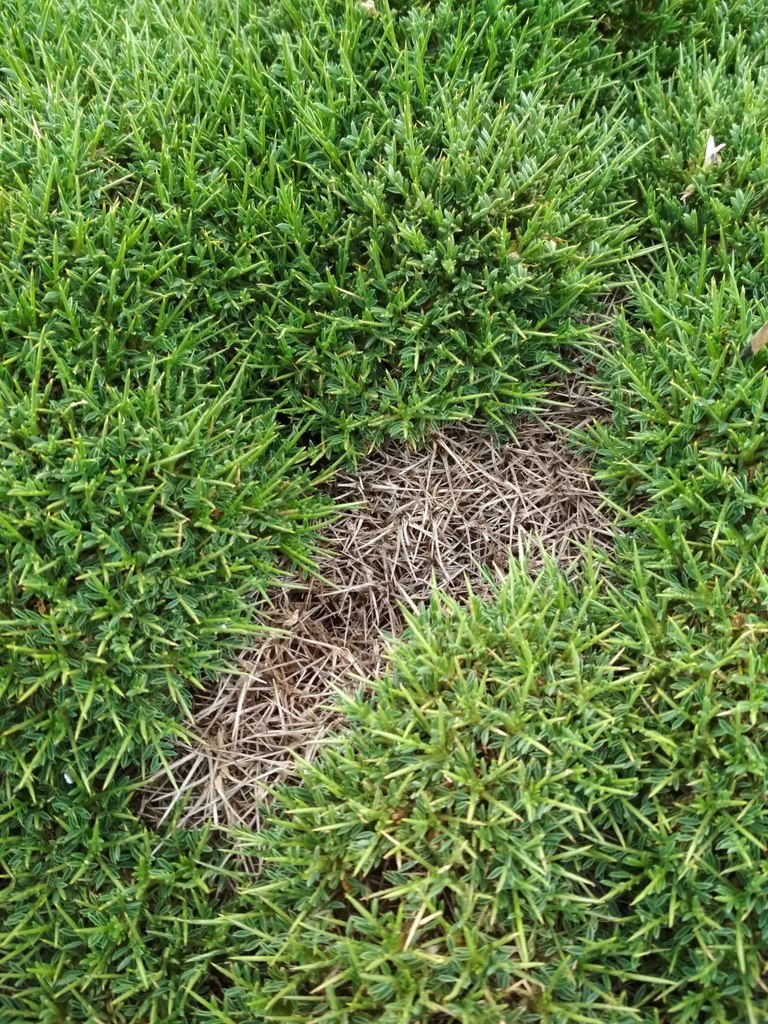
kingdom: Plantae
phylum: Tracheophyta
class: Magnoliopsida
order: Fabales
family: Fabaceae
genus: Astragalus
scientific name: Astragalus balearicus
